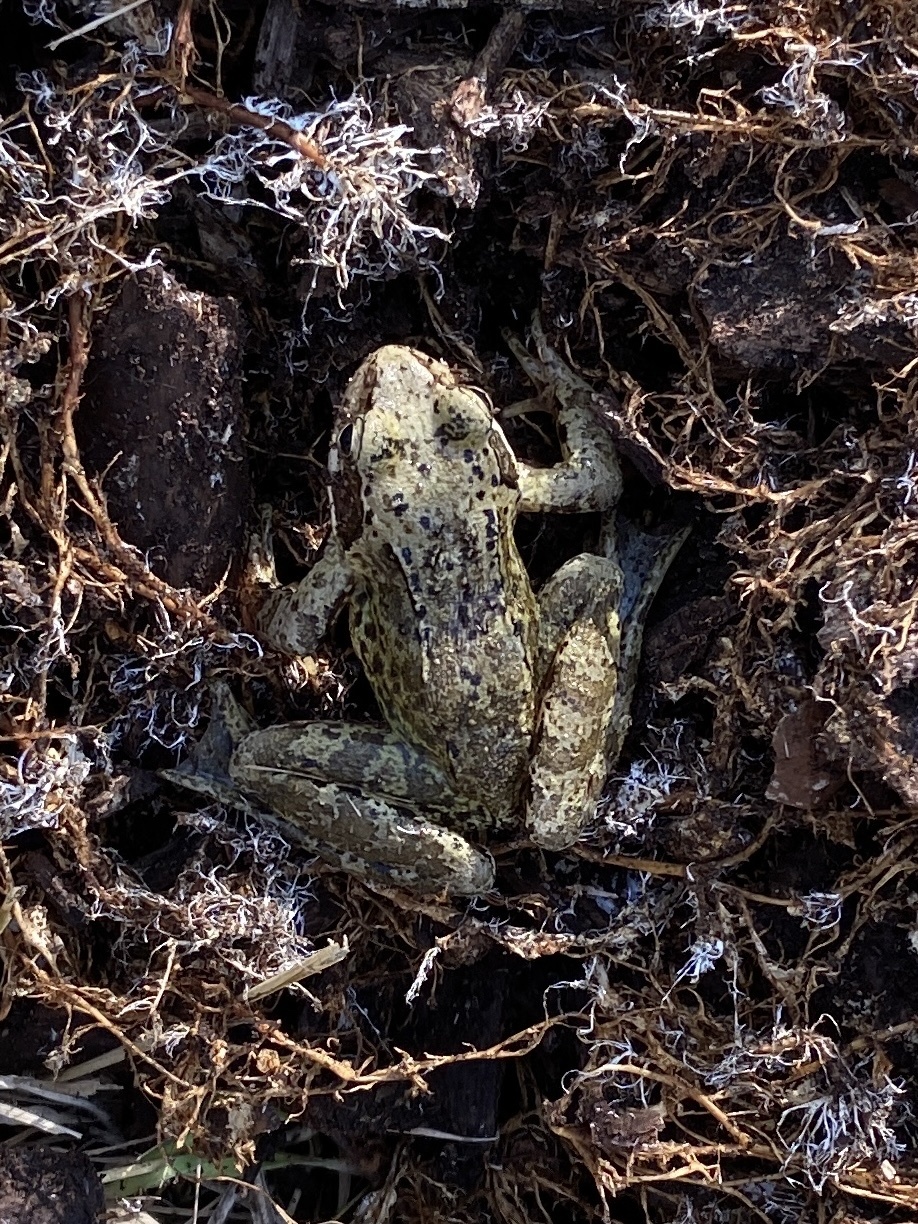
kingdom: Animalia
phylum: Chordata
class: Amphibia
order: Anura
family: Ranidae
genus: Rana
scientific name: Rana temporaria
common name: Common frog
